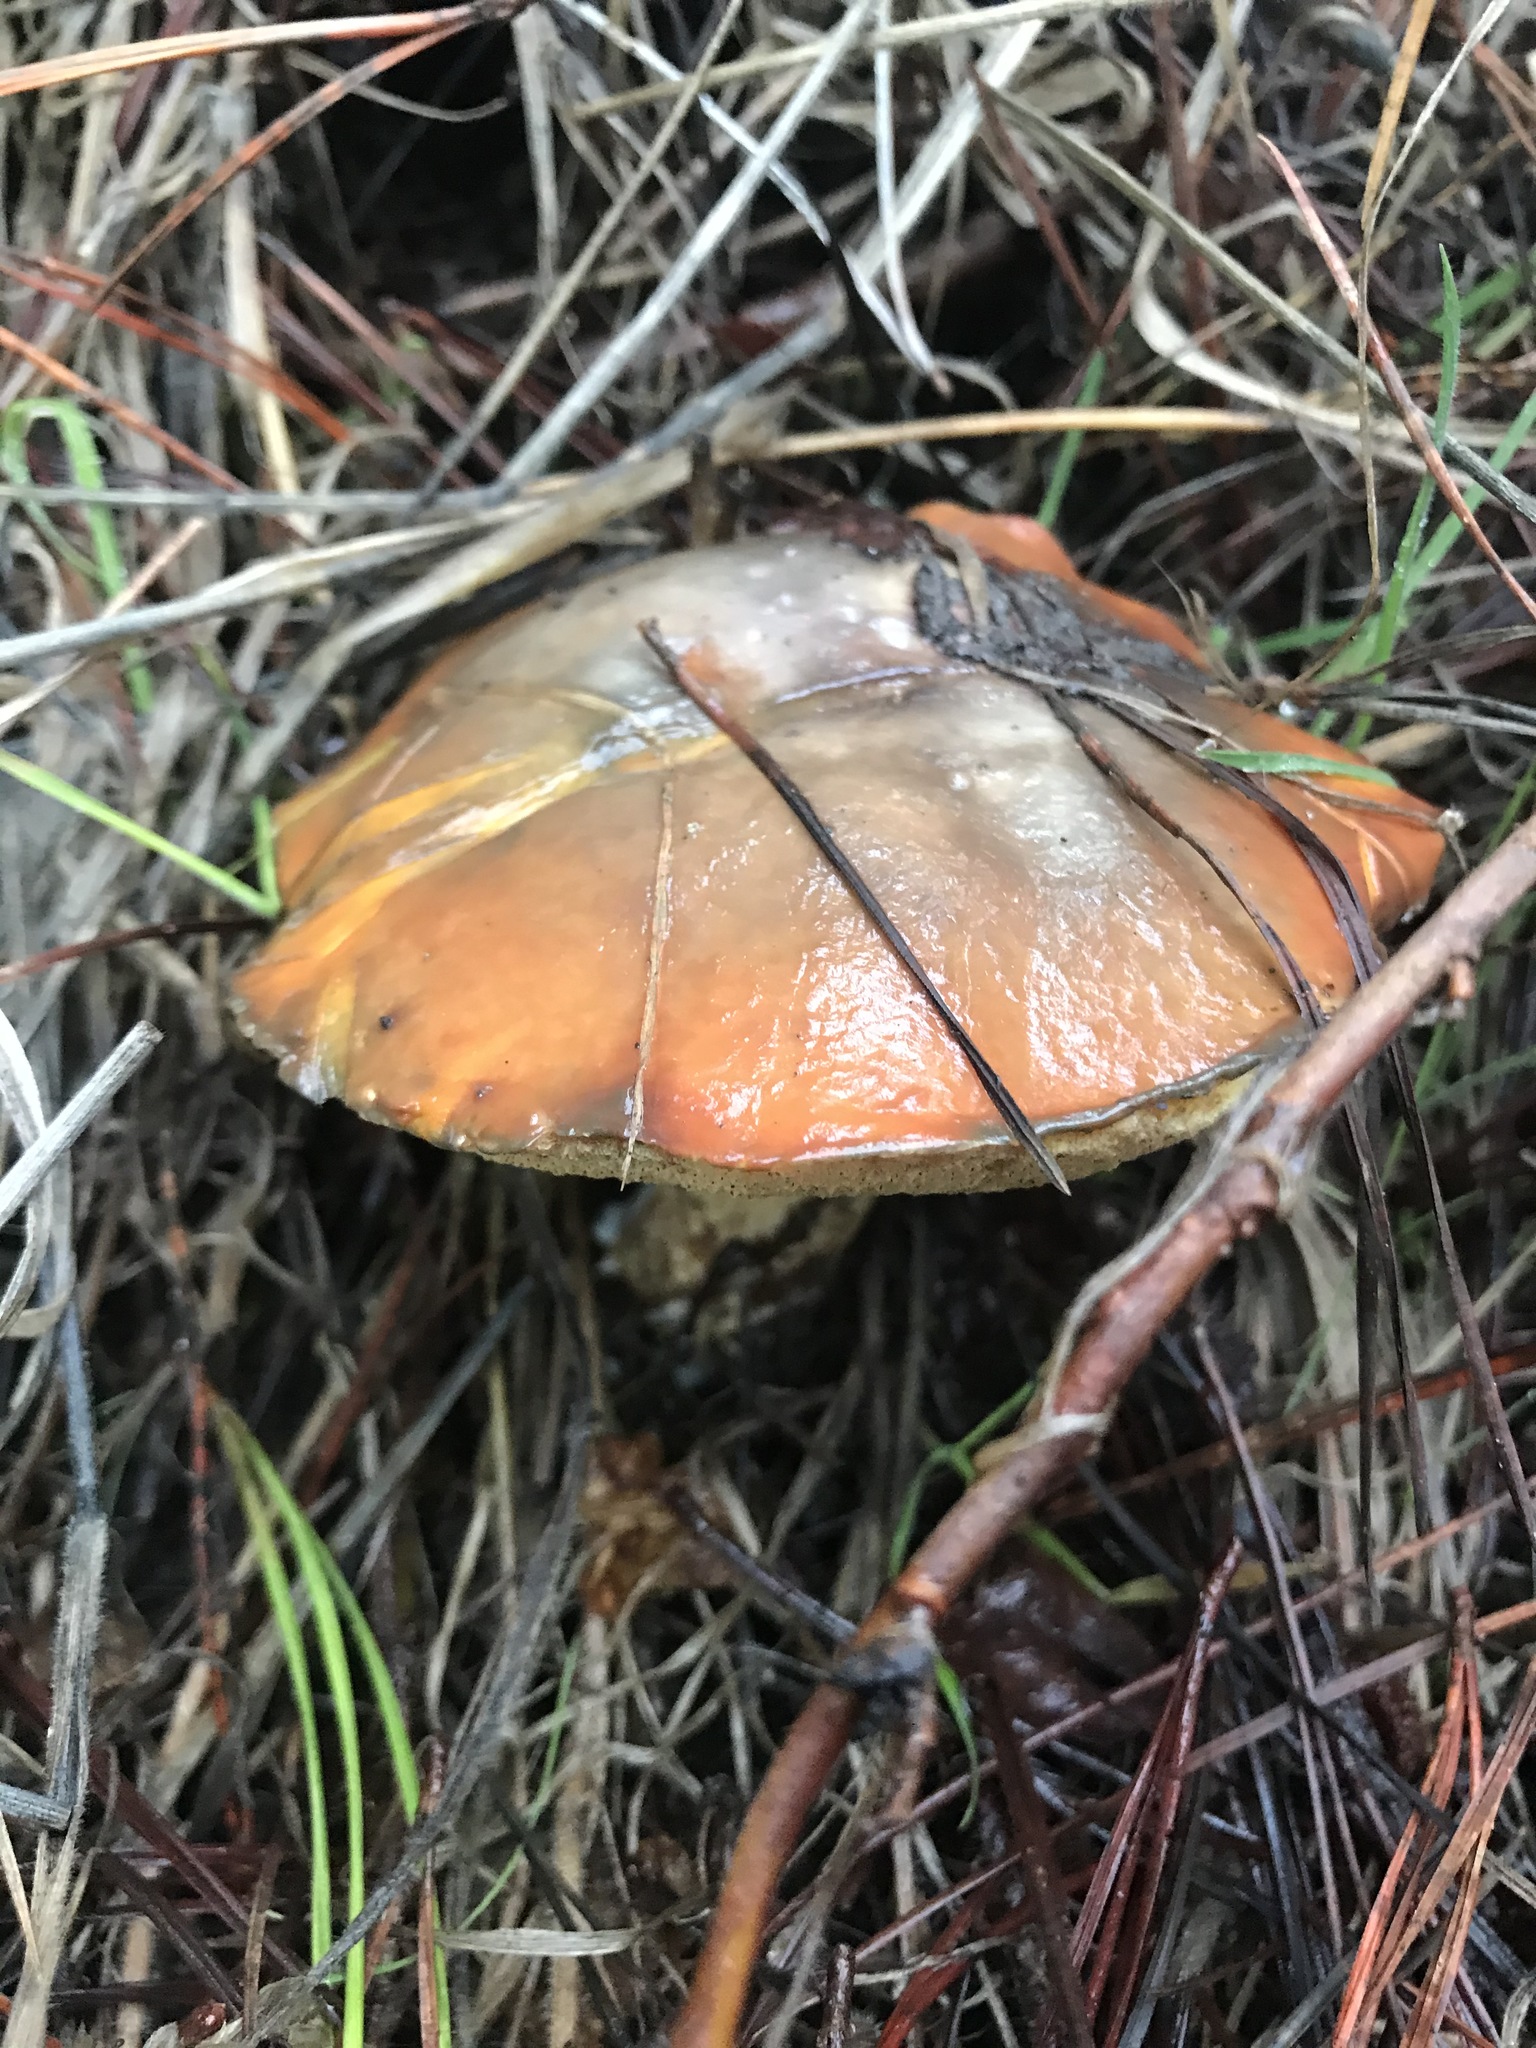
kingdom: Fungi
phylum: Basidiomycota
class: Agaricomycetes
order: Boletales
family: Suillaceae
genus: Suillus
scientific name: Suillus pungens
